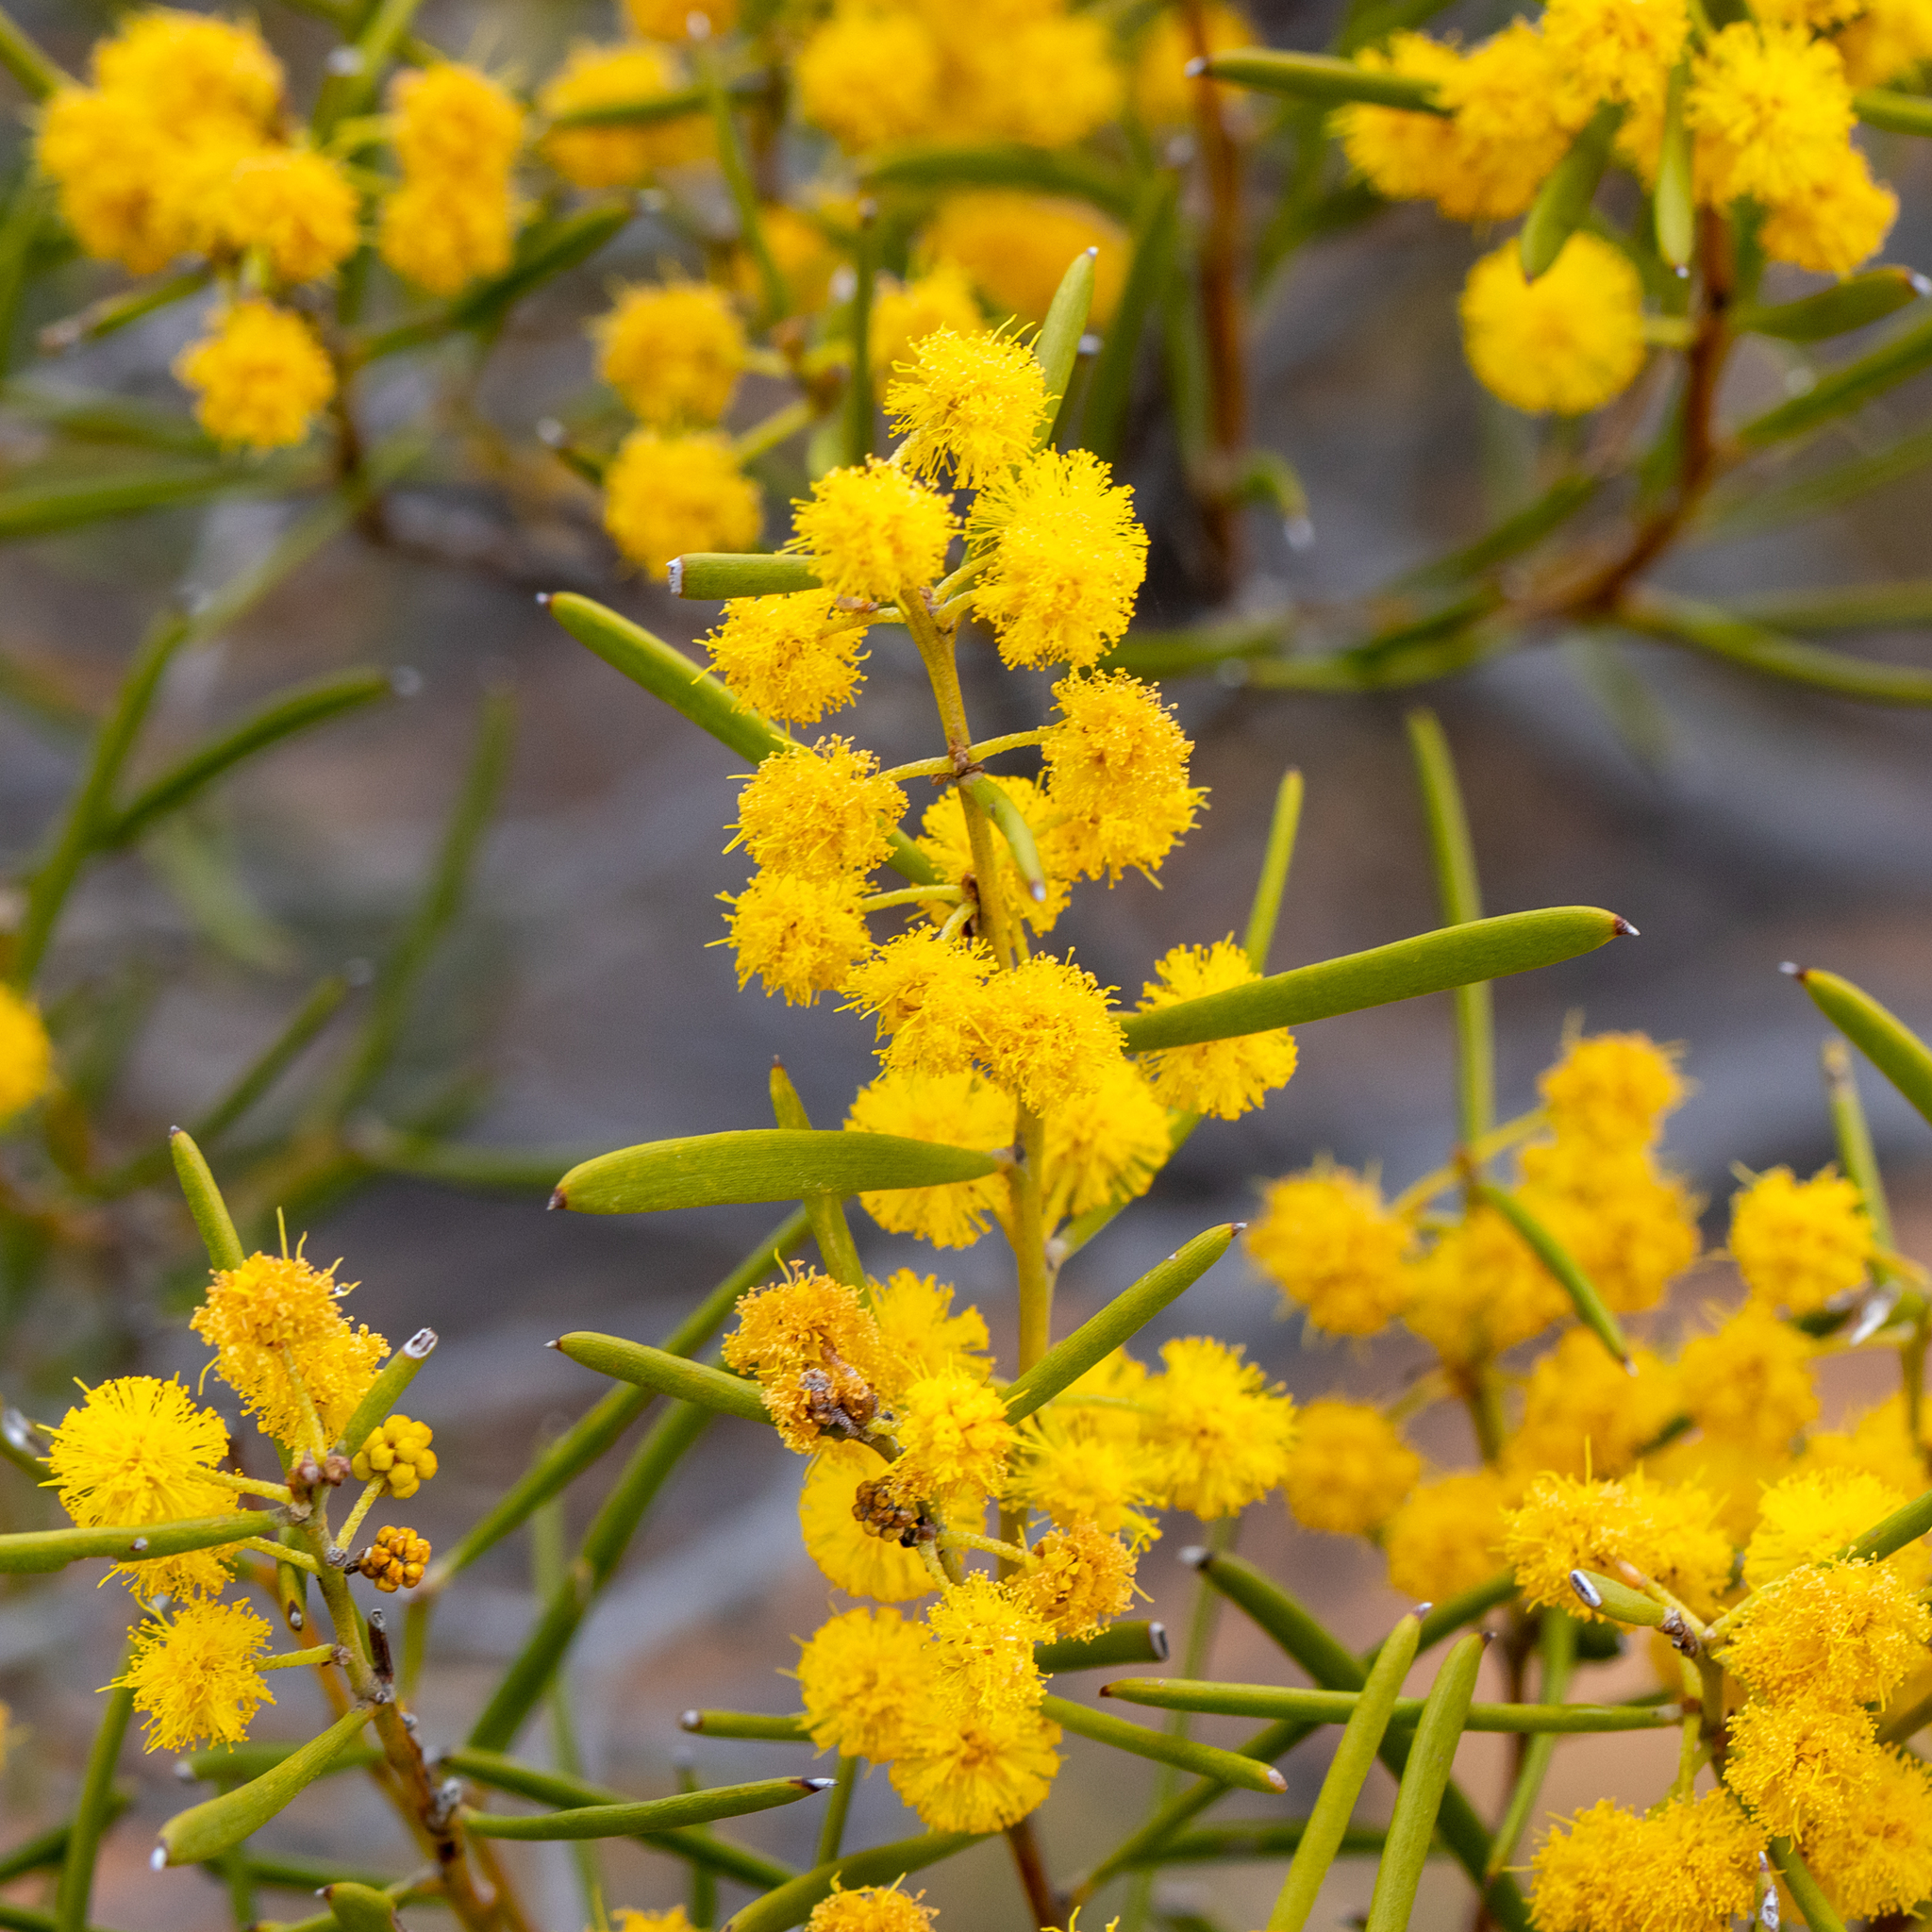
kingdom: Plantae
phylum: Tracheophyta
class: Magnoliopsida
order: Fabales
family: Fabaceae
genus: Acacia
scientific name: Acacia sclerophylla
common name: Hard-leaf wattle
